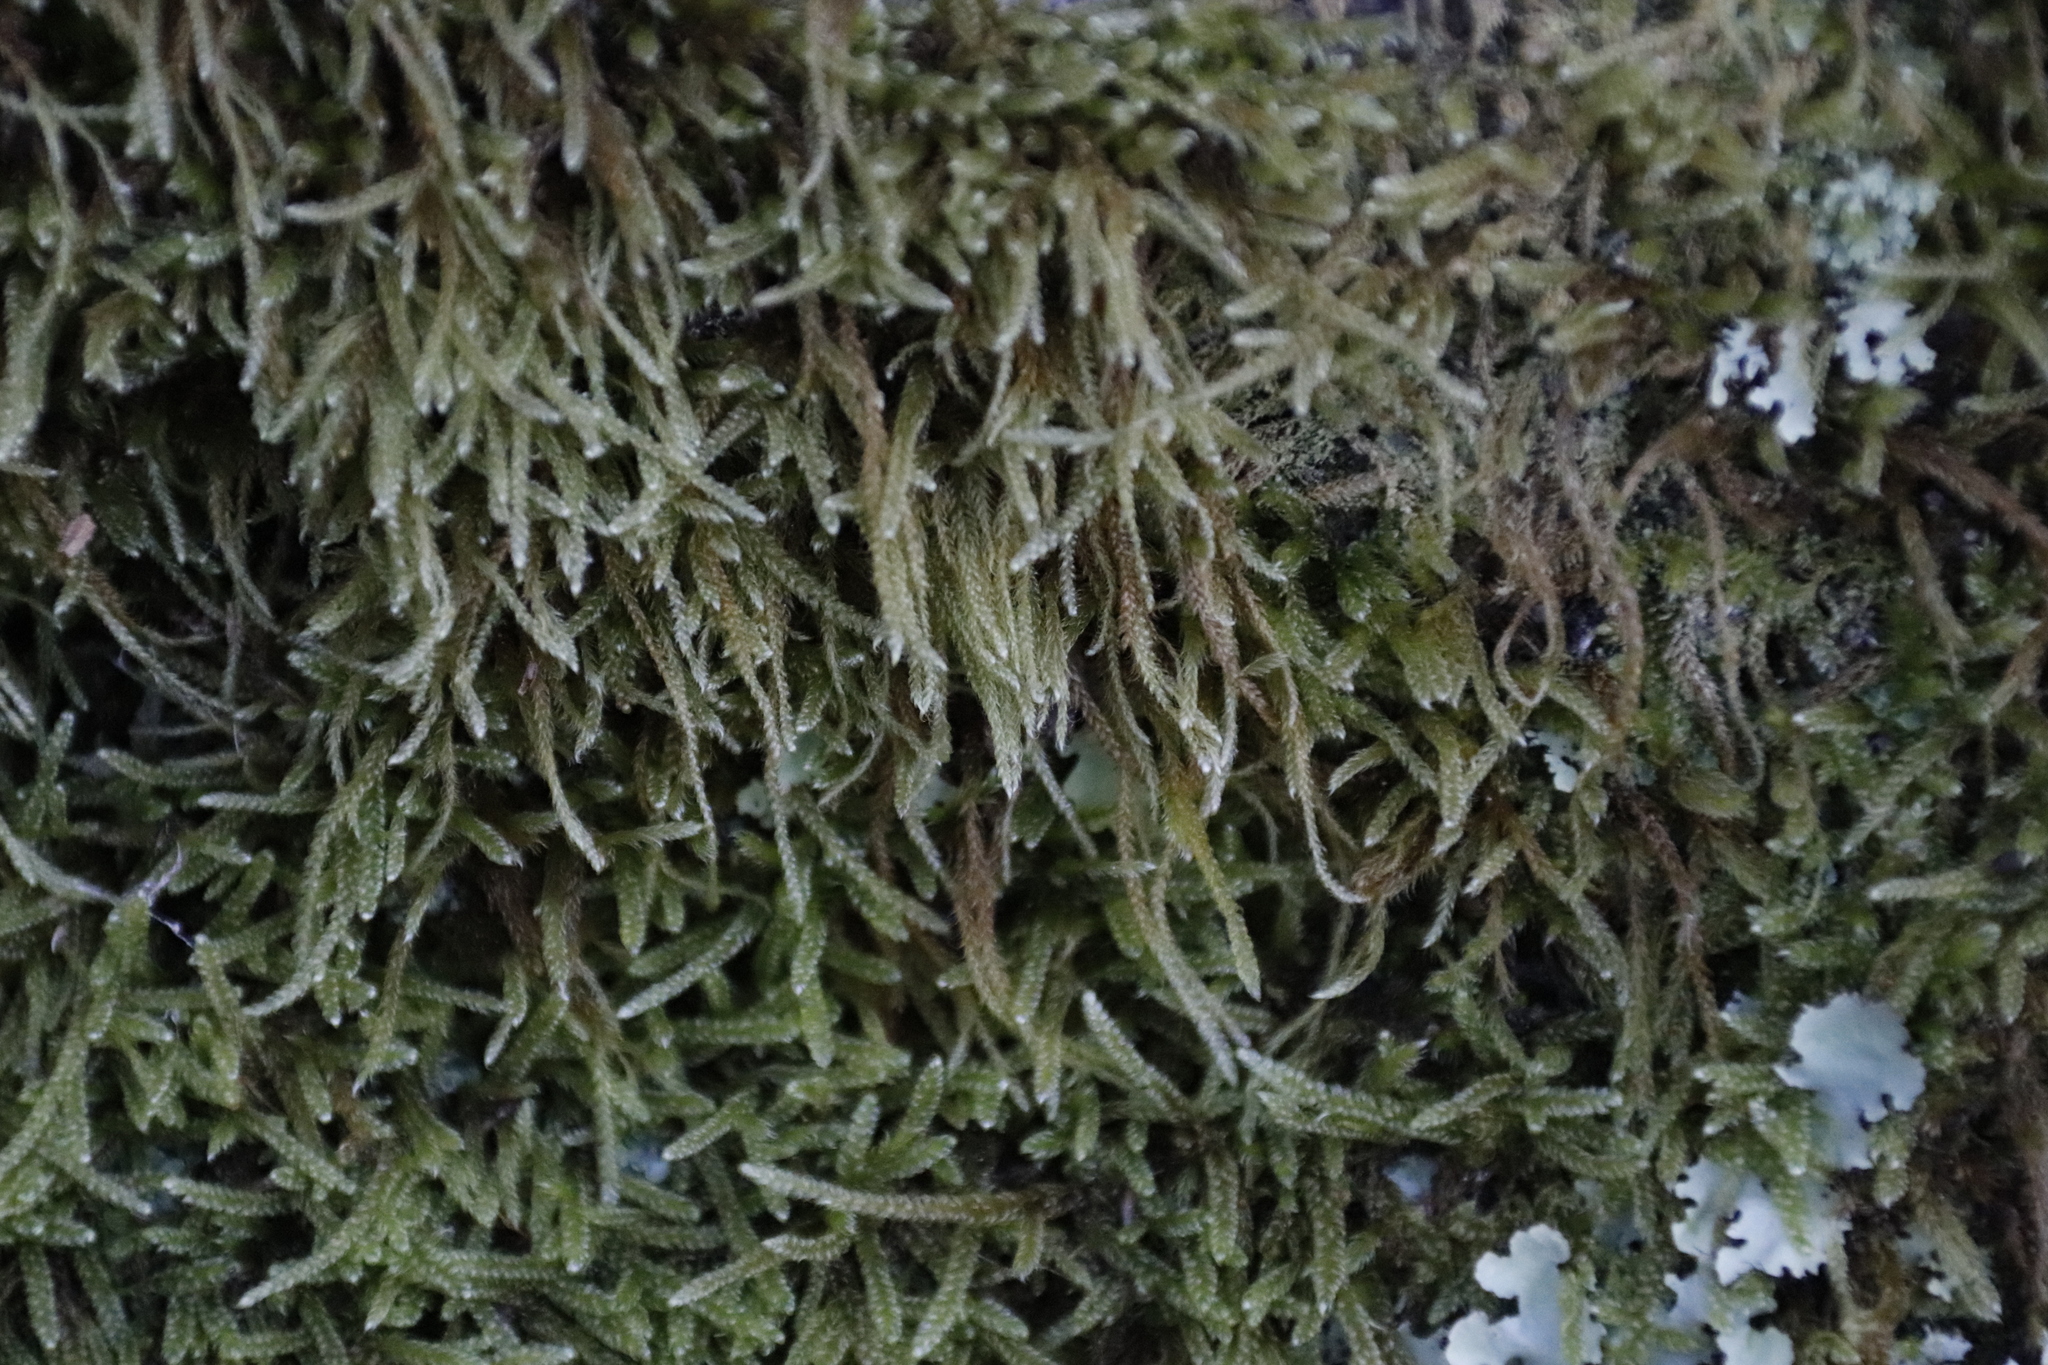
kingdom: Plantae
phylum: Bryophyta
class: Bryopsida
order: Hypnales
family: Hypnaceae
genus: Hypnum
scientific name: Hypnum cupressiforme
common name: Cypress-leaved plait-moss
